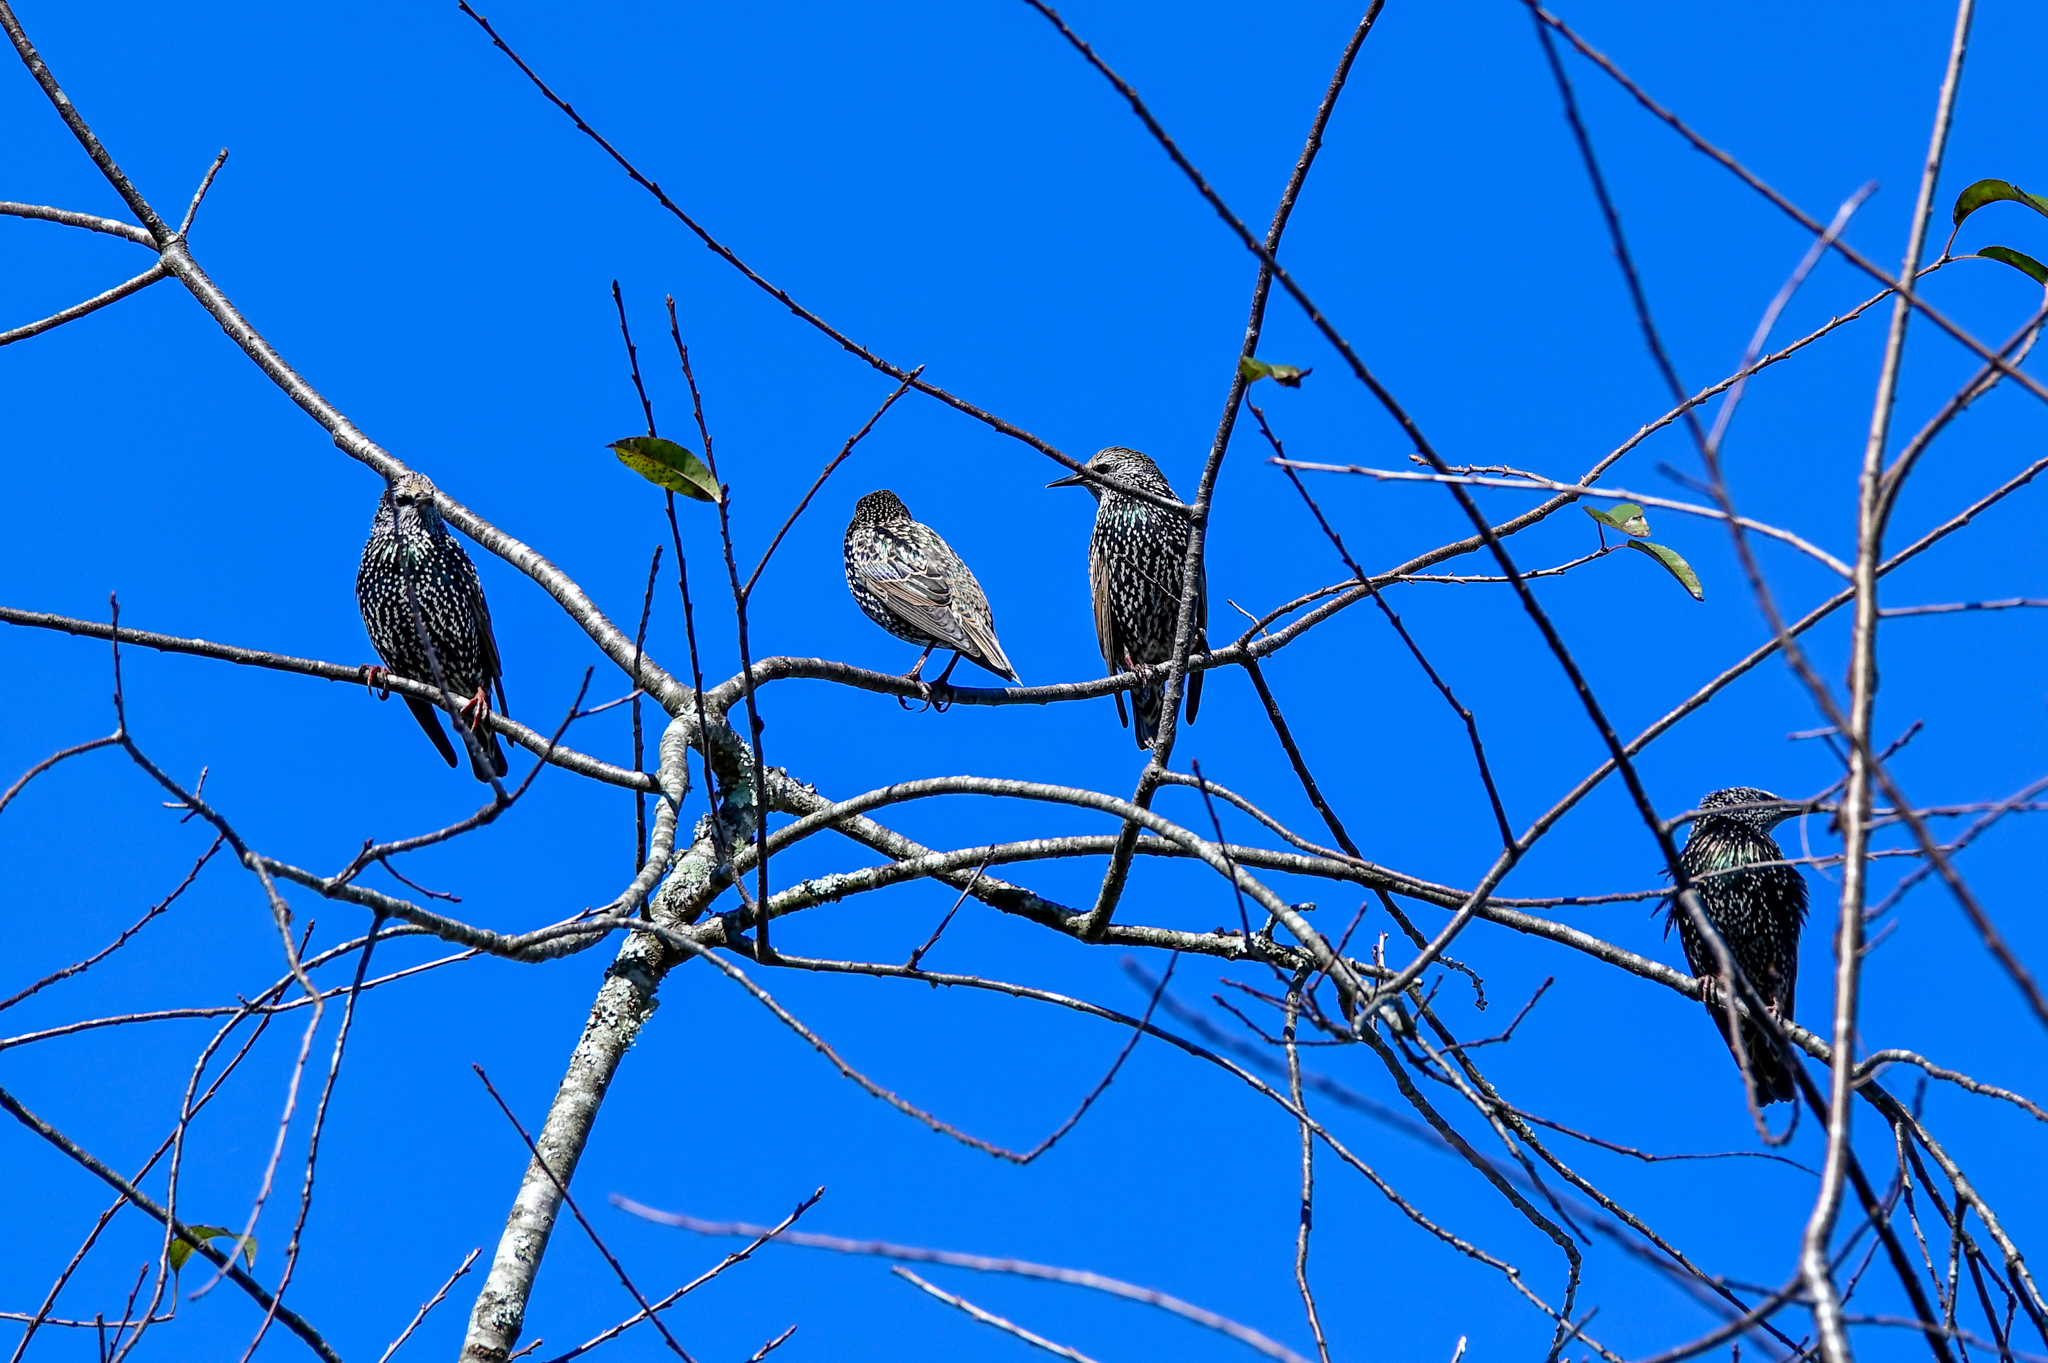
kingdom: Animalia
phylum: Chordata
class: Aves
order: Passeriformes
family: Sturnidae
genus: Sturnus
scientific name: Sturnus vulgaris
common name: Common starling
